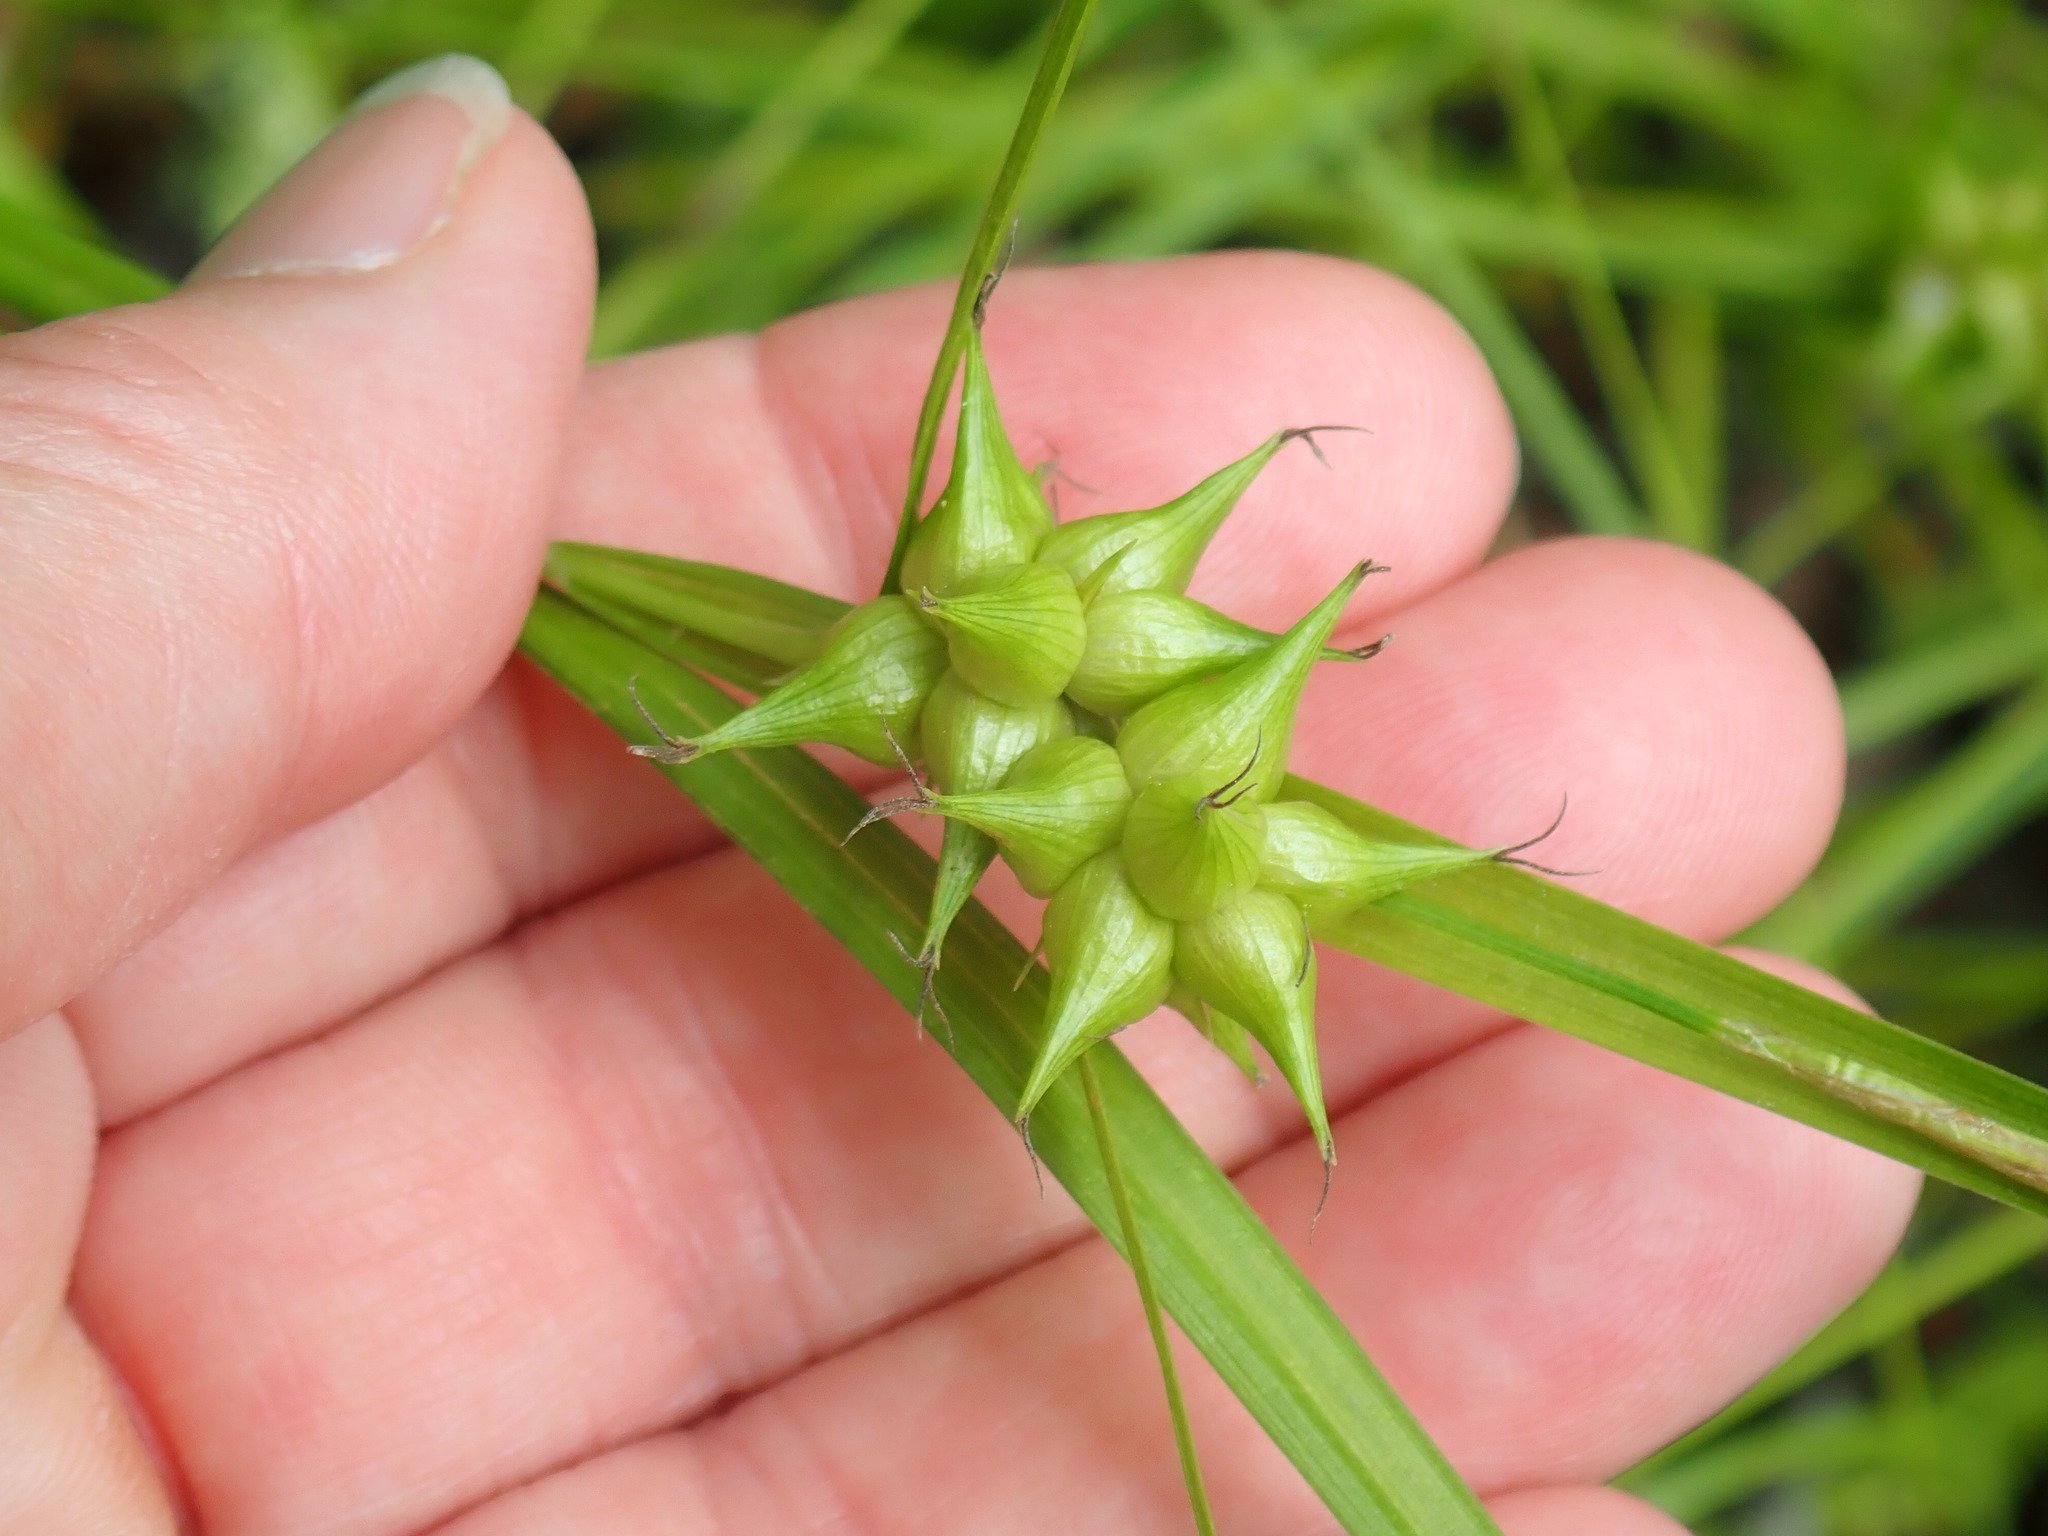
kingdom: Plantae
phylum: Tracheophyta
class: Liliopsida
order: Poales
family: Cyperaceae
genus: Carex
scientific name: Carex intumescens
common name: Greater bladder sedge
